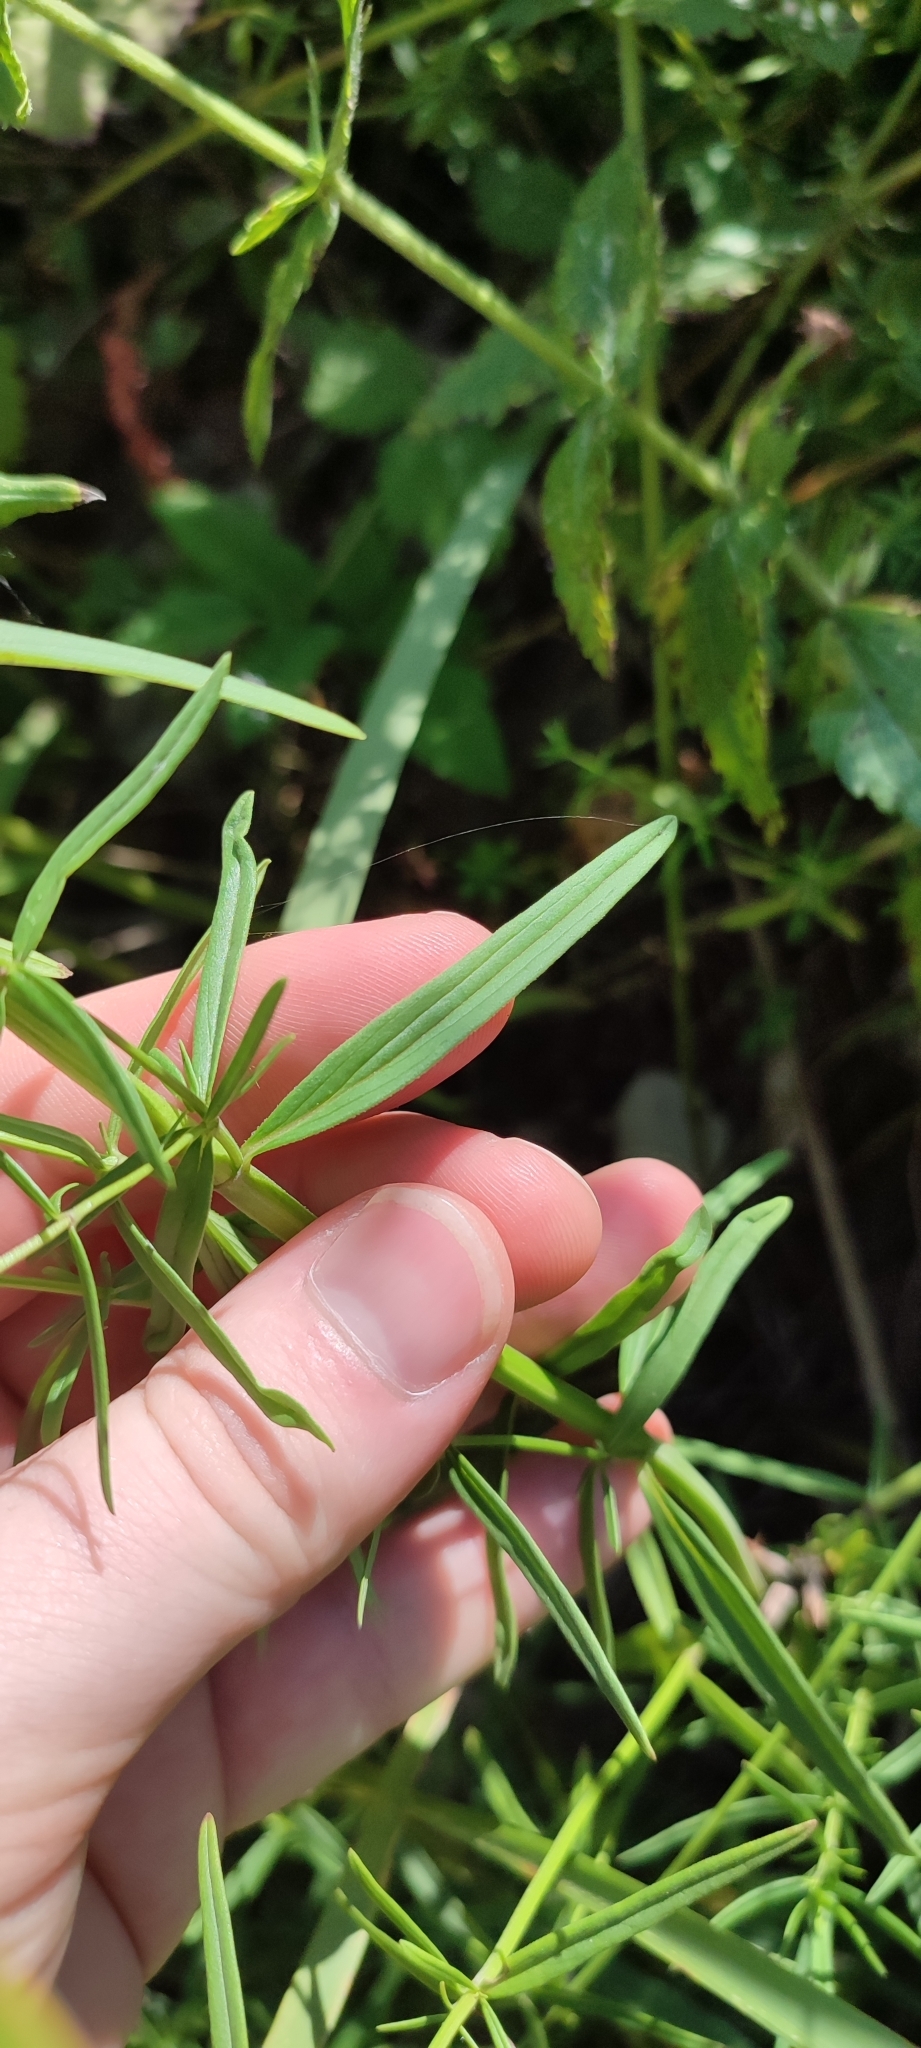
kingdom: Plantae
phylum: Tracheophyta
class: Magnoliopsida
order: Lamiales
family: Lamiaceae
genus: Dracocephalum
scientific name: Dracocephalum ruyschiana
